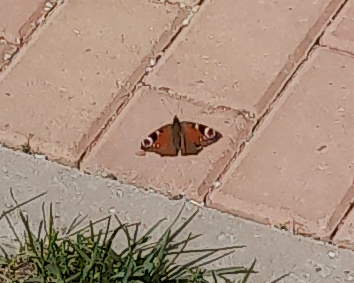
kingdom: Animalia
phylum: Arthropoda
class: Insecta
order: Lepidoptera
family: Nymphalidae
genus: Aglais
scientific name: Aglais io
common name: Peacock
